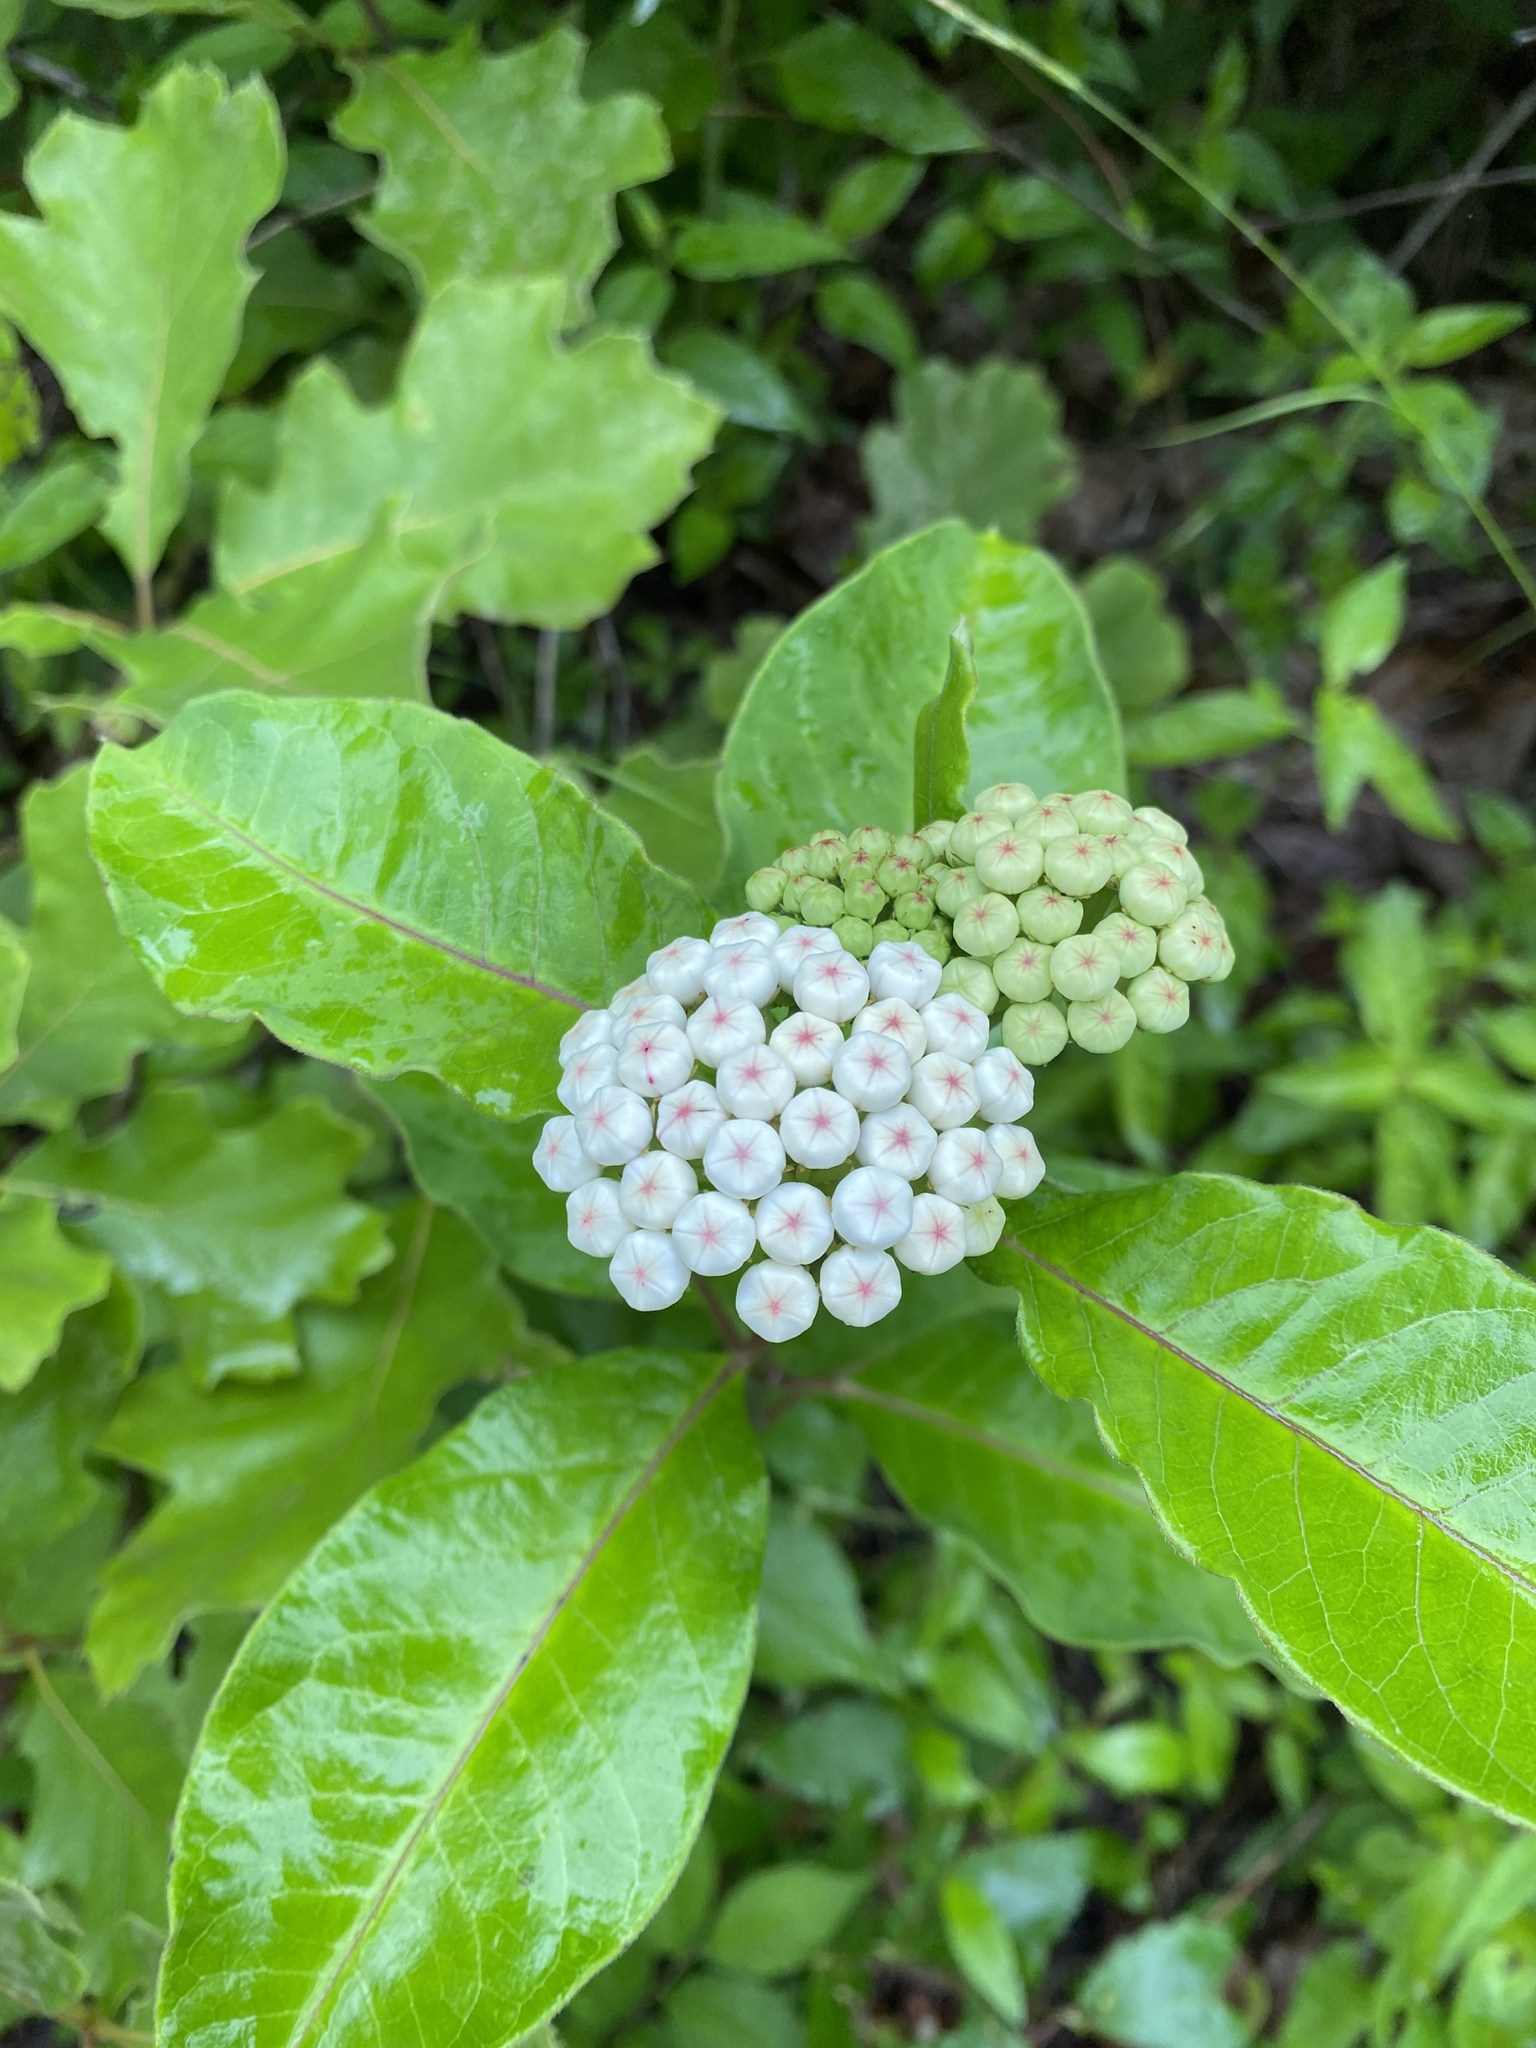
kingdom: Plantae
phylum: Tracheophyta
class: Magnoliopsida
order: Gentianales
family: Apocynaceae
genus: Asclepias
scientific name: Asclepias variegata
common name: Variegated milkweed
